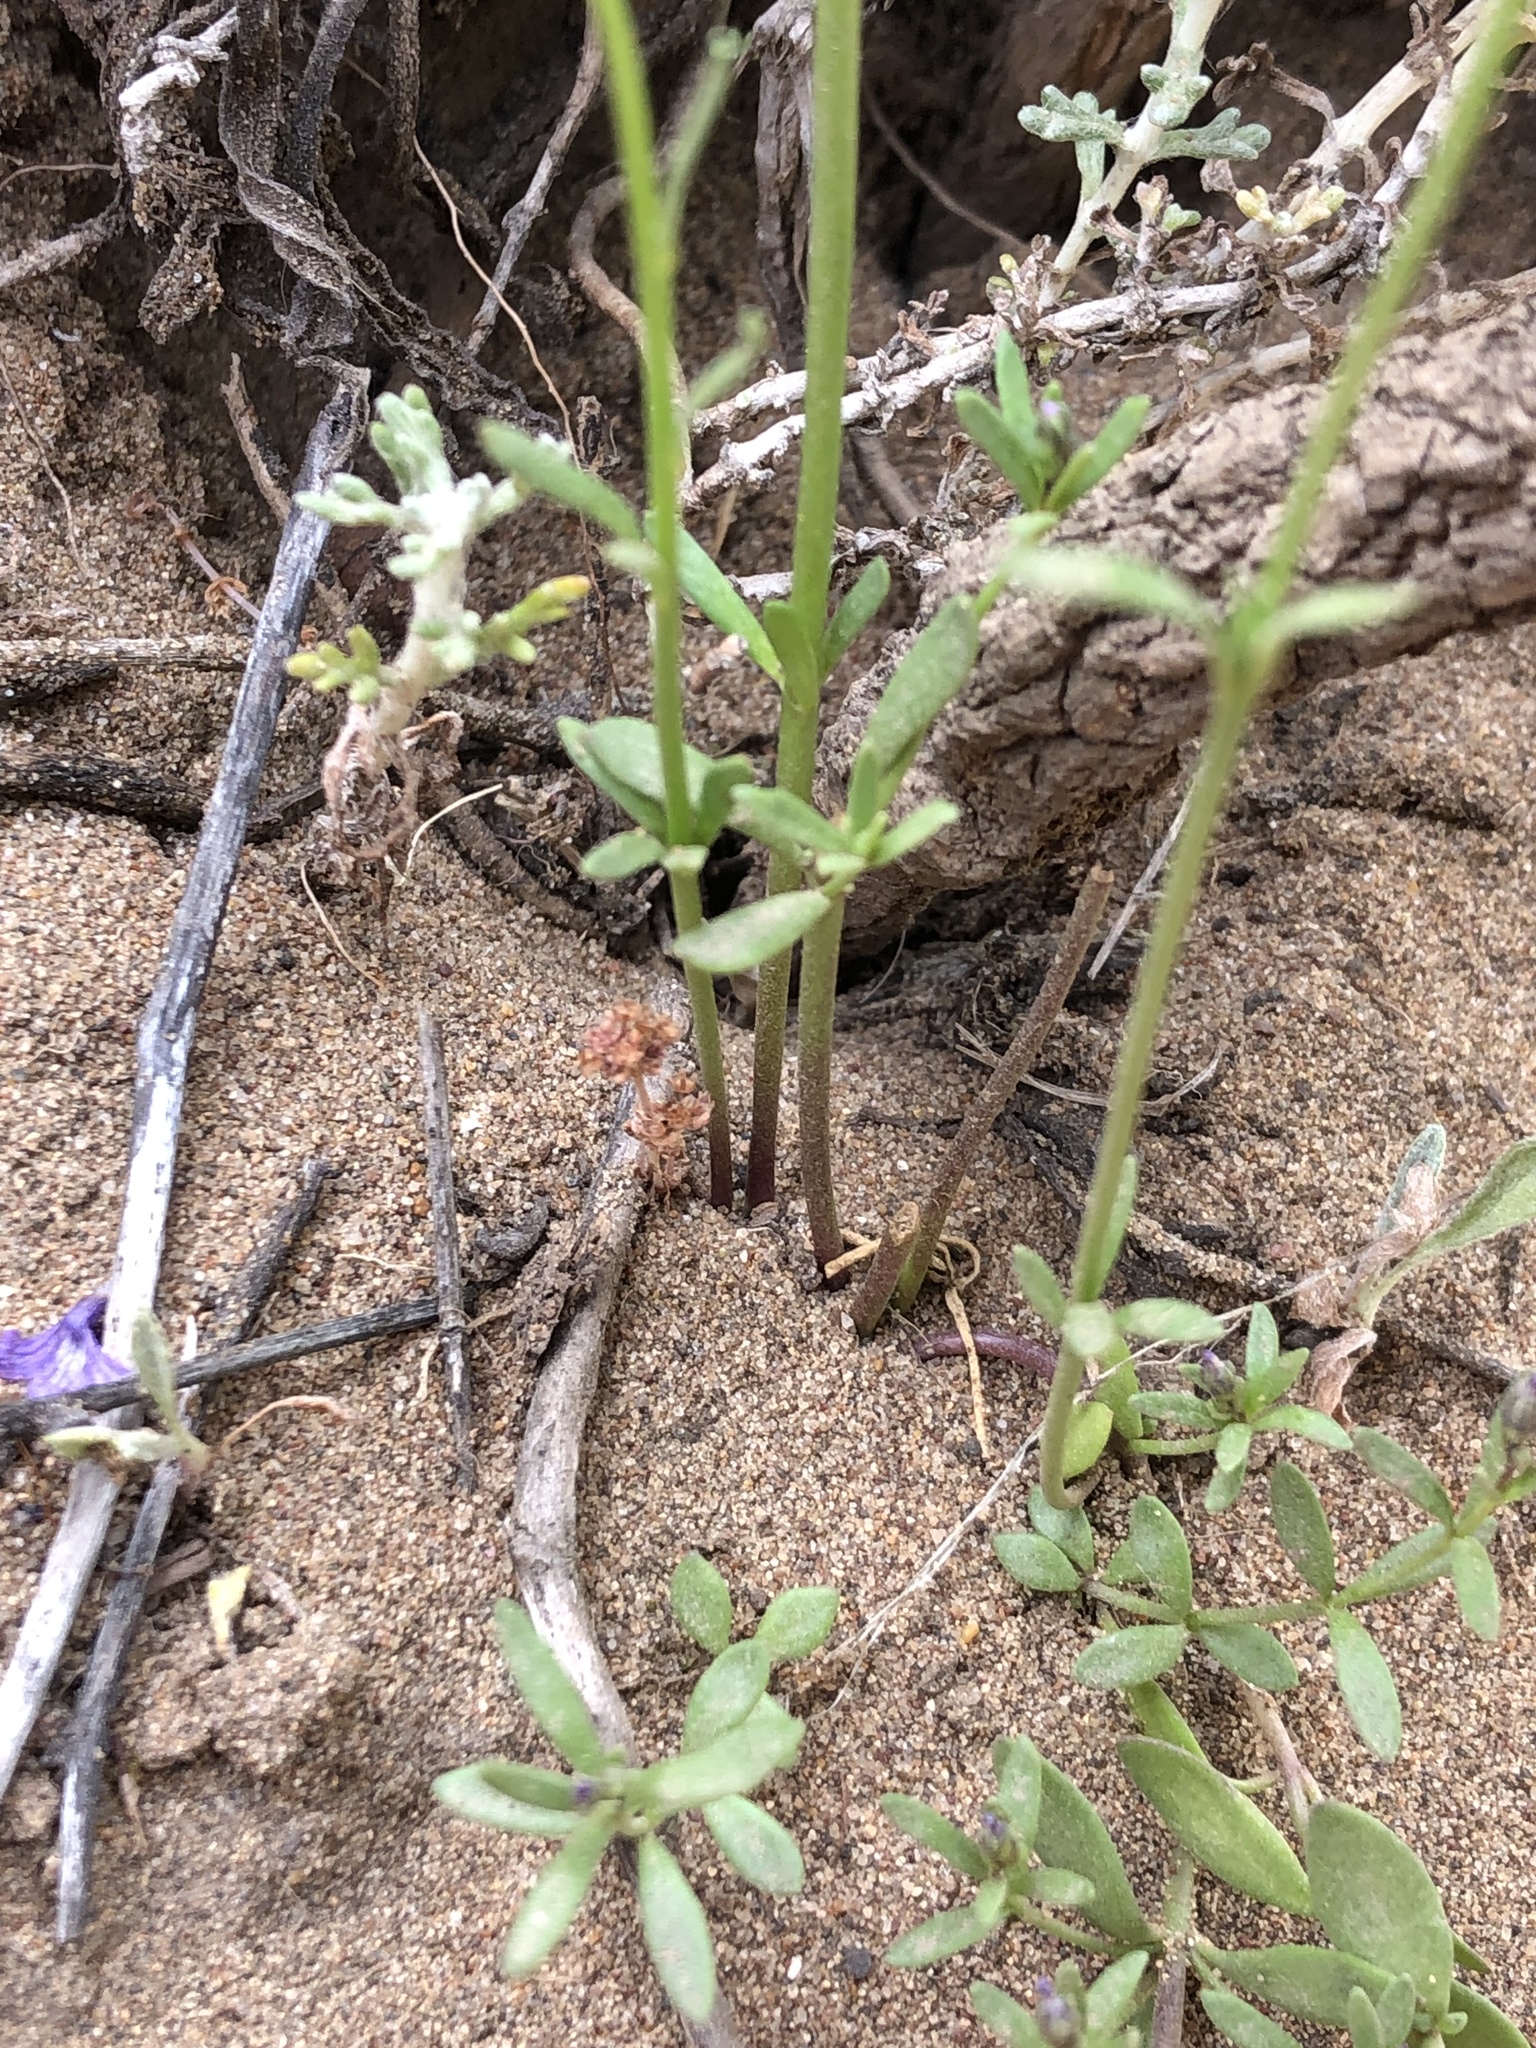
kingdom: Plantae
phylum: Tracheophyta
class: Magnoliopsida
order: Lamiales
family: Plantaginaceae
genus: Nuttallanthus
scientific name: Nuttallanthus texanus
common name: Texas toadflax
